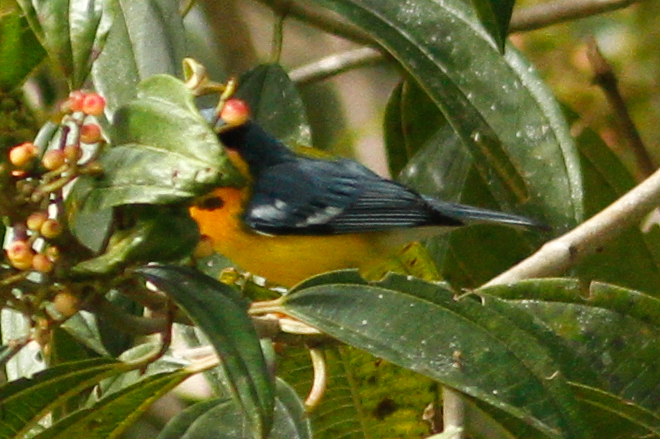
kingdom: Animalia
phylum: Chordata
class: Aves
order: Passeriformes
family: Parulidae
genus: Setophaga
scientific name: Setophaga pitiayumi
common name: Tropical parula
